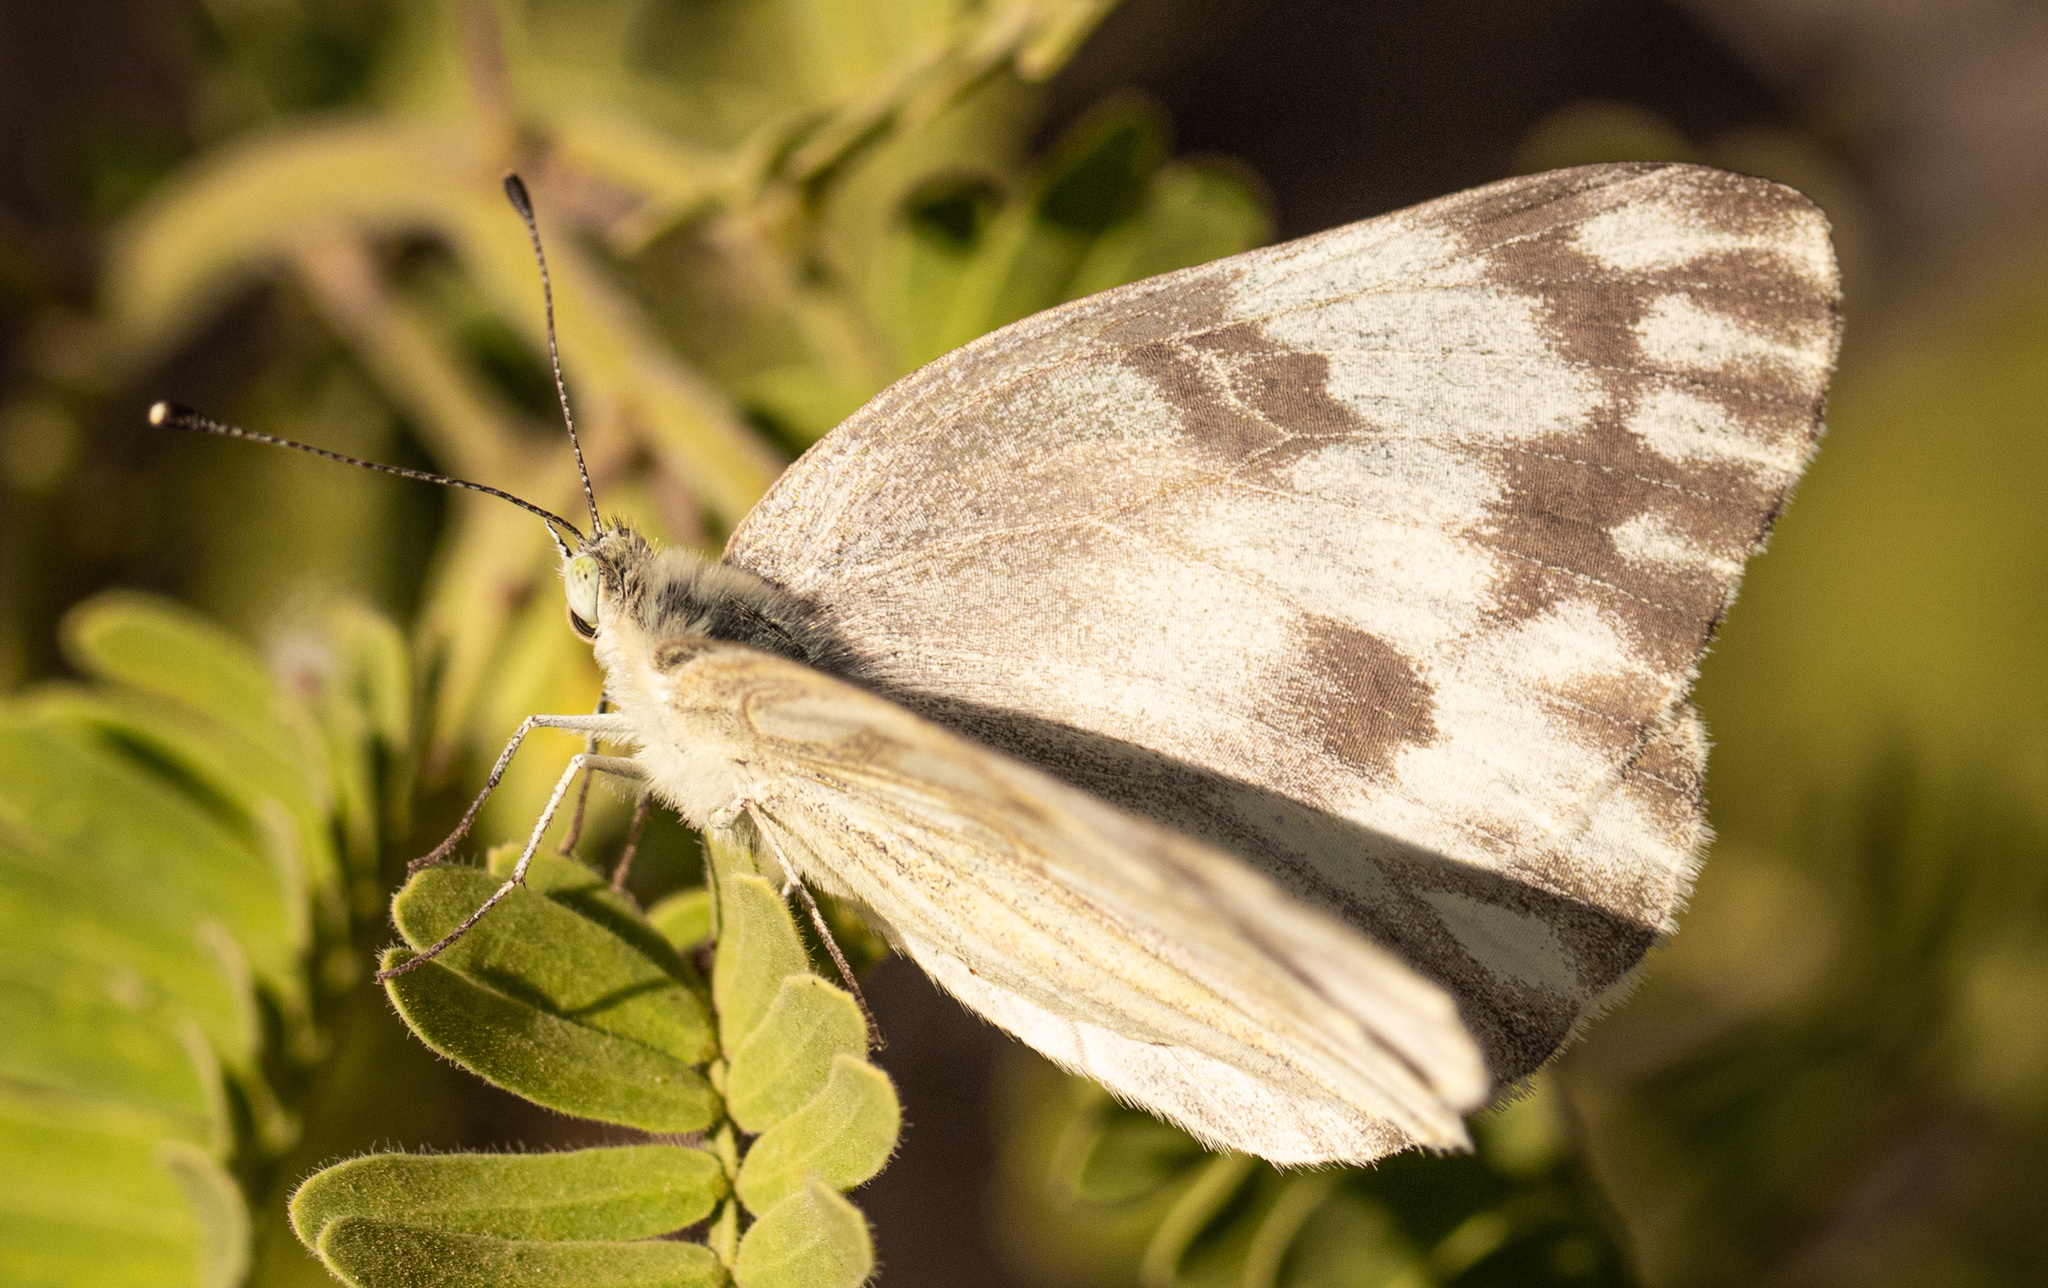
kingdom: Animalia
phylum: Arthropoda
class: Insecta
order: Lepidoptera
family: Pieridae
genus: Pontia
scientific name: Pontia protodice
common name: Checkered white
